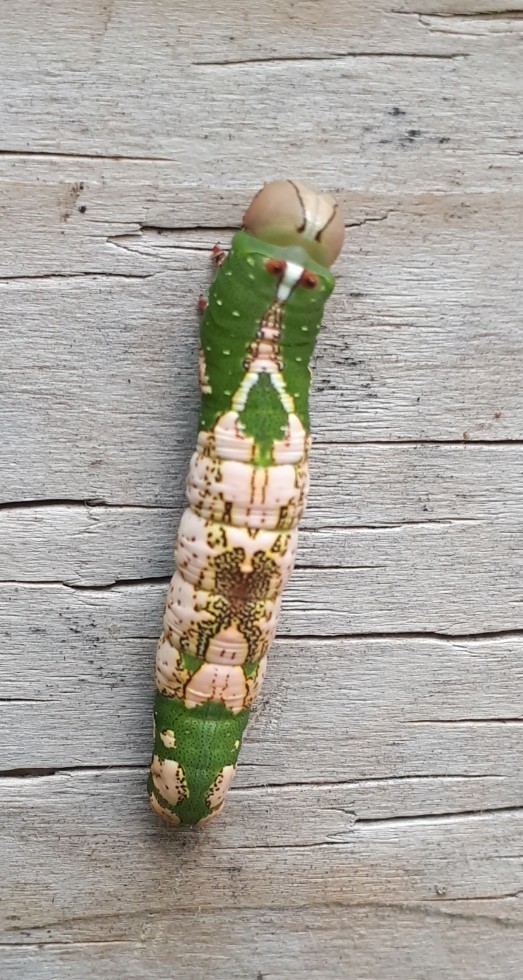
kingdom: Animalia
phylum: Arthropoda
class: Insecta
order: Lepidoptera
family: Notodontidae
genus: Heterocampa
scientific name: Heterocampa
